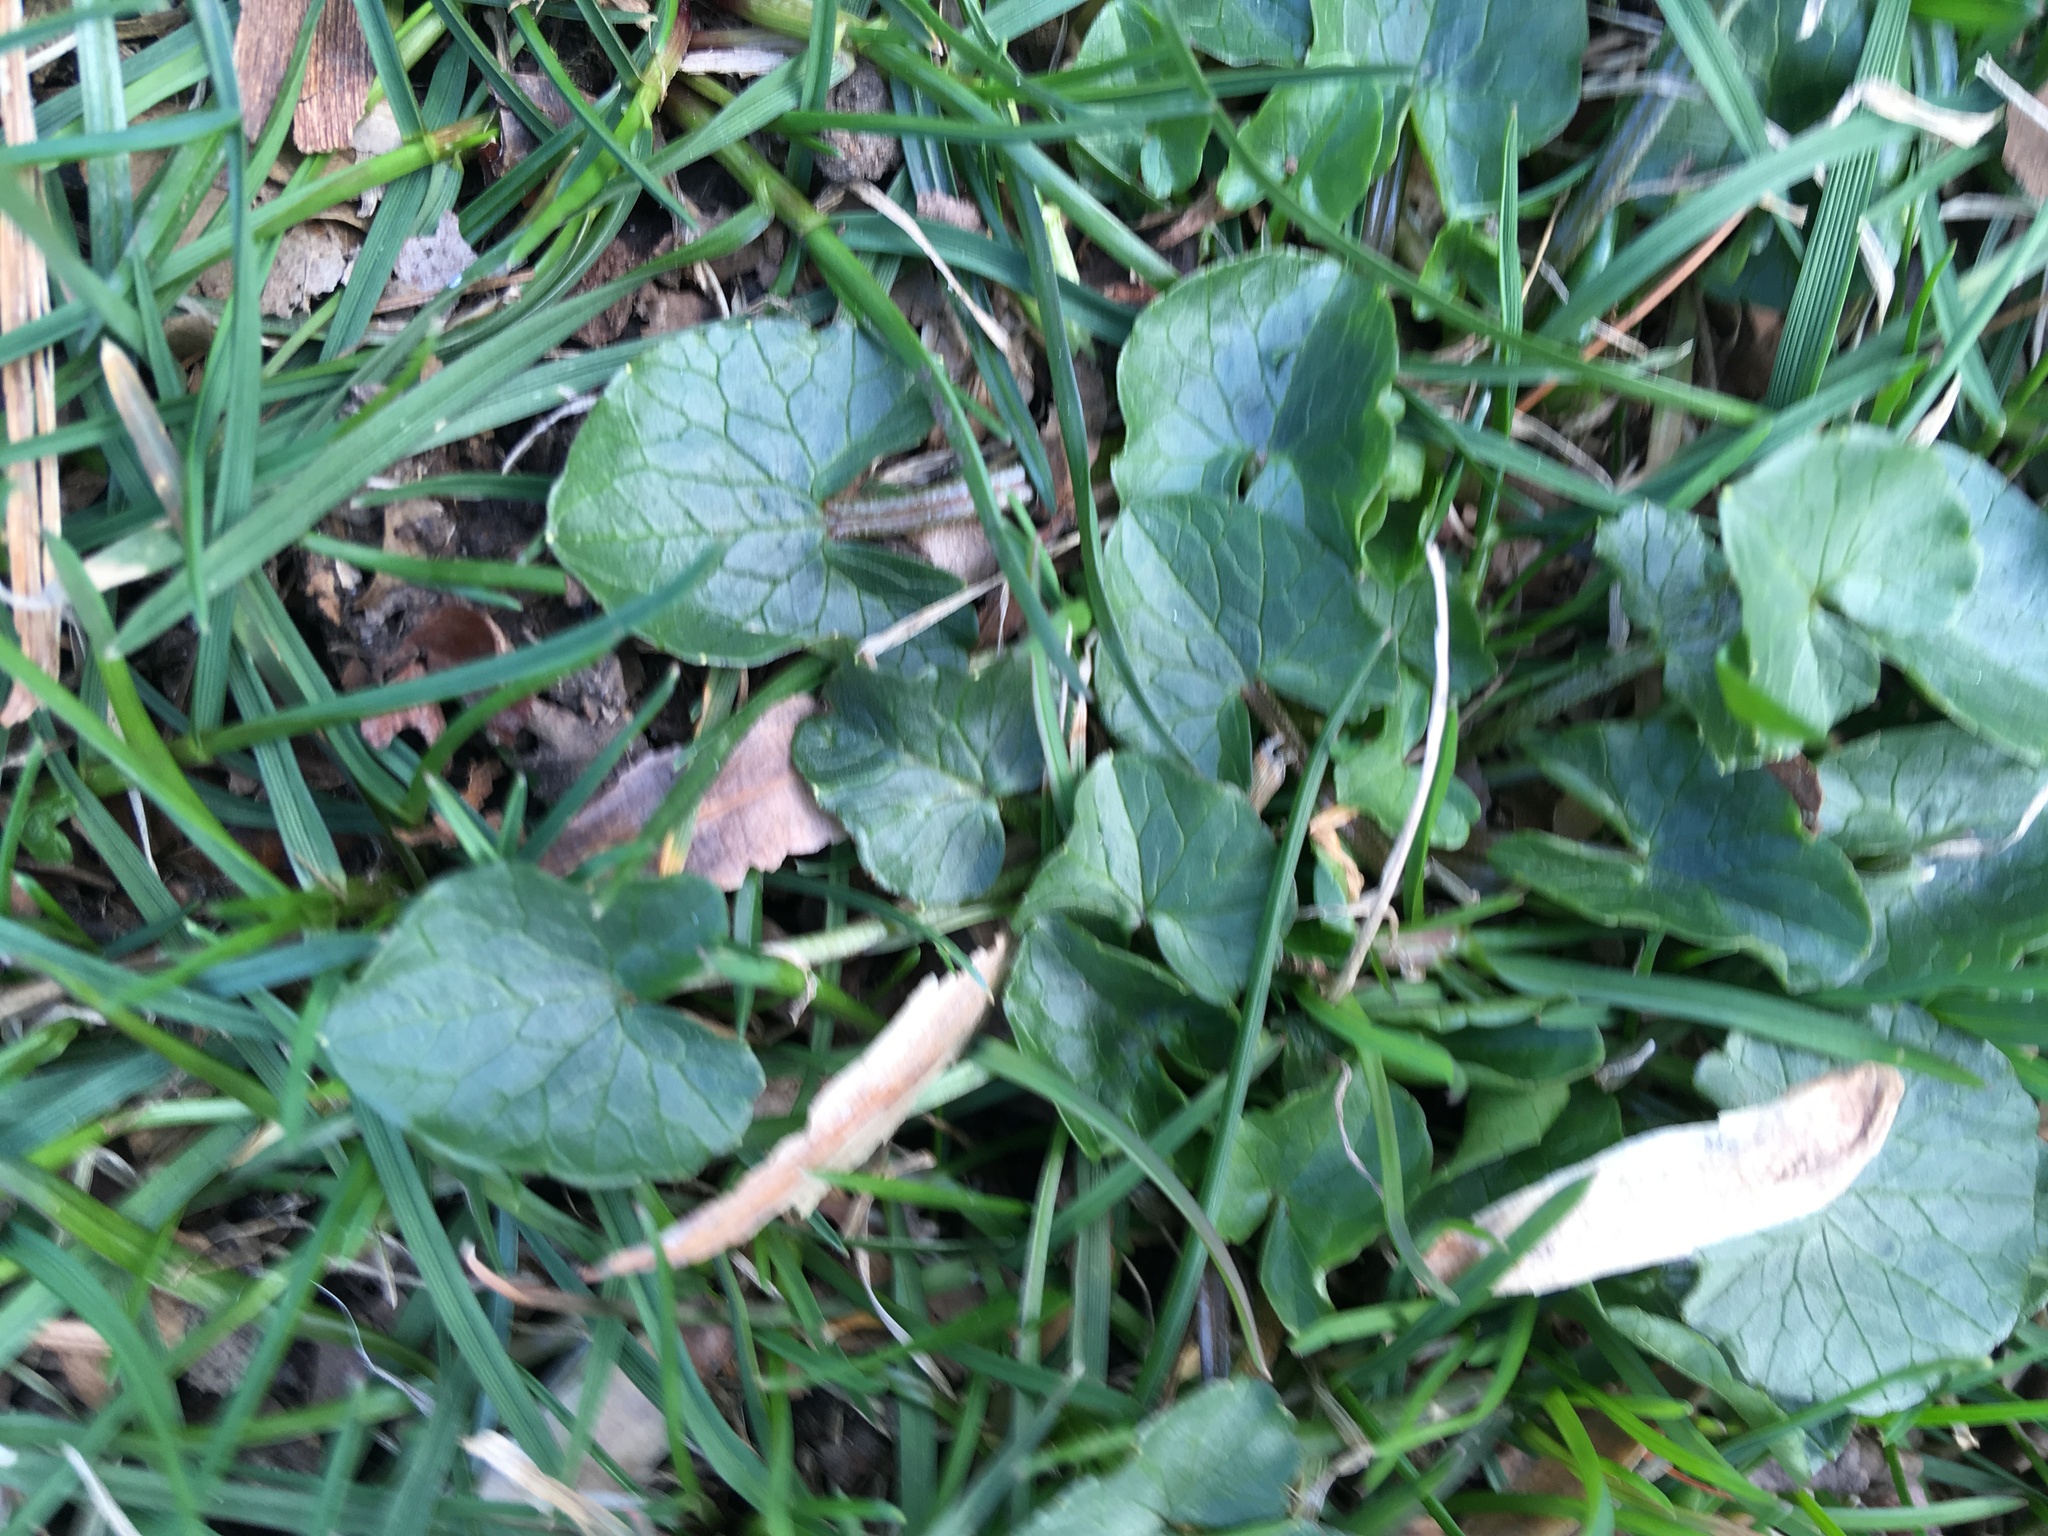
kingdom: Plantae
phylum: Tracheophyta
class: Magnoliopsida
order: Ranunculales
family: Ranunculaceae
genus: Ficaria
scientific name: Ficaria verna
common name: Lesser celandine
